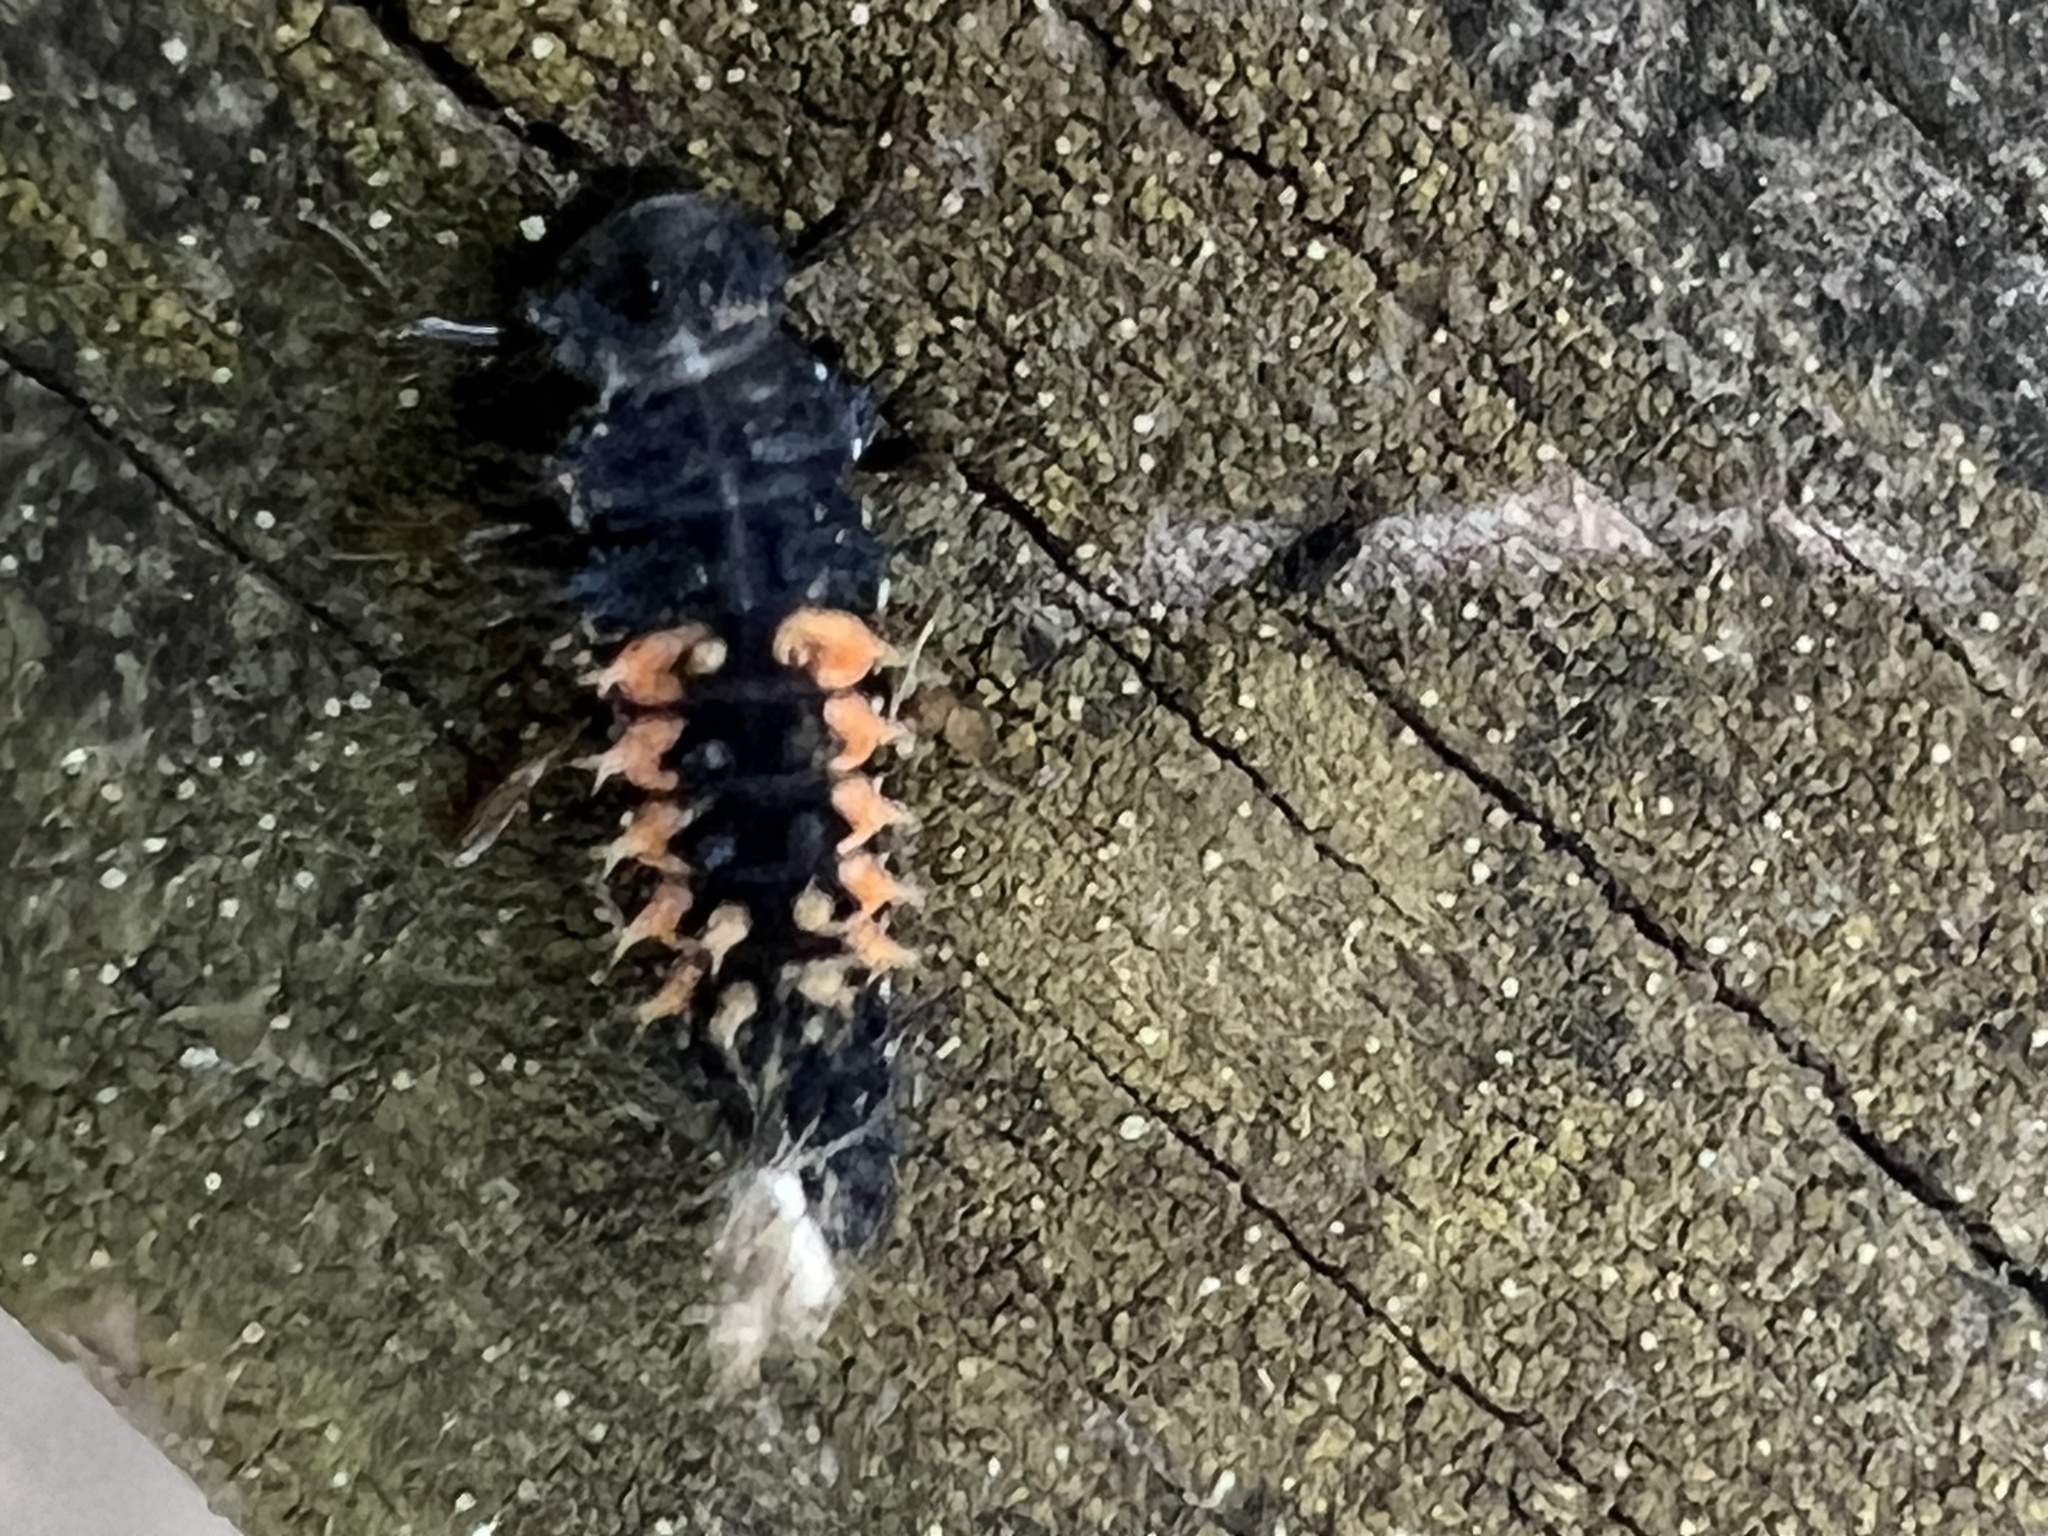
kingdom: Animalia
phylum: Arthropoda
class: Insecta
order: Coleoptera
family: Coccinellidae
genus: Harmonia
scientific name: Harmonia axyridis
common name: Harlequin ladybird
